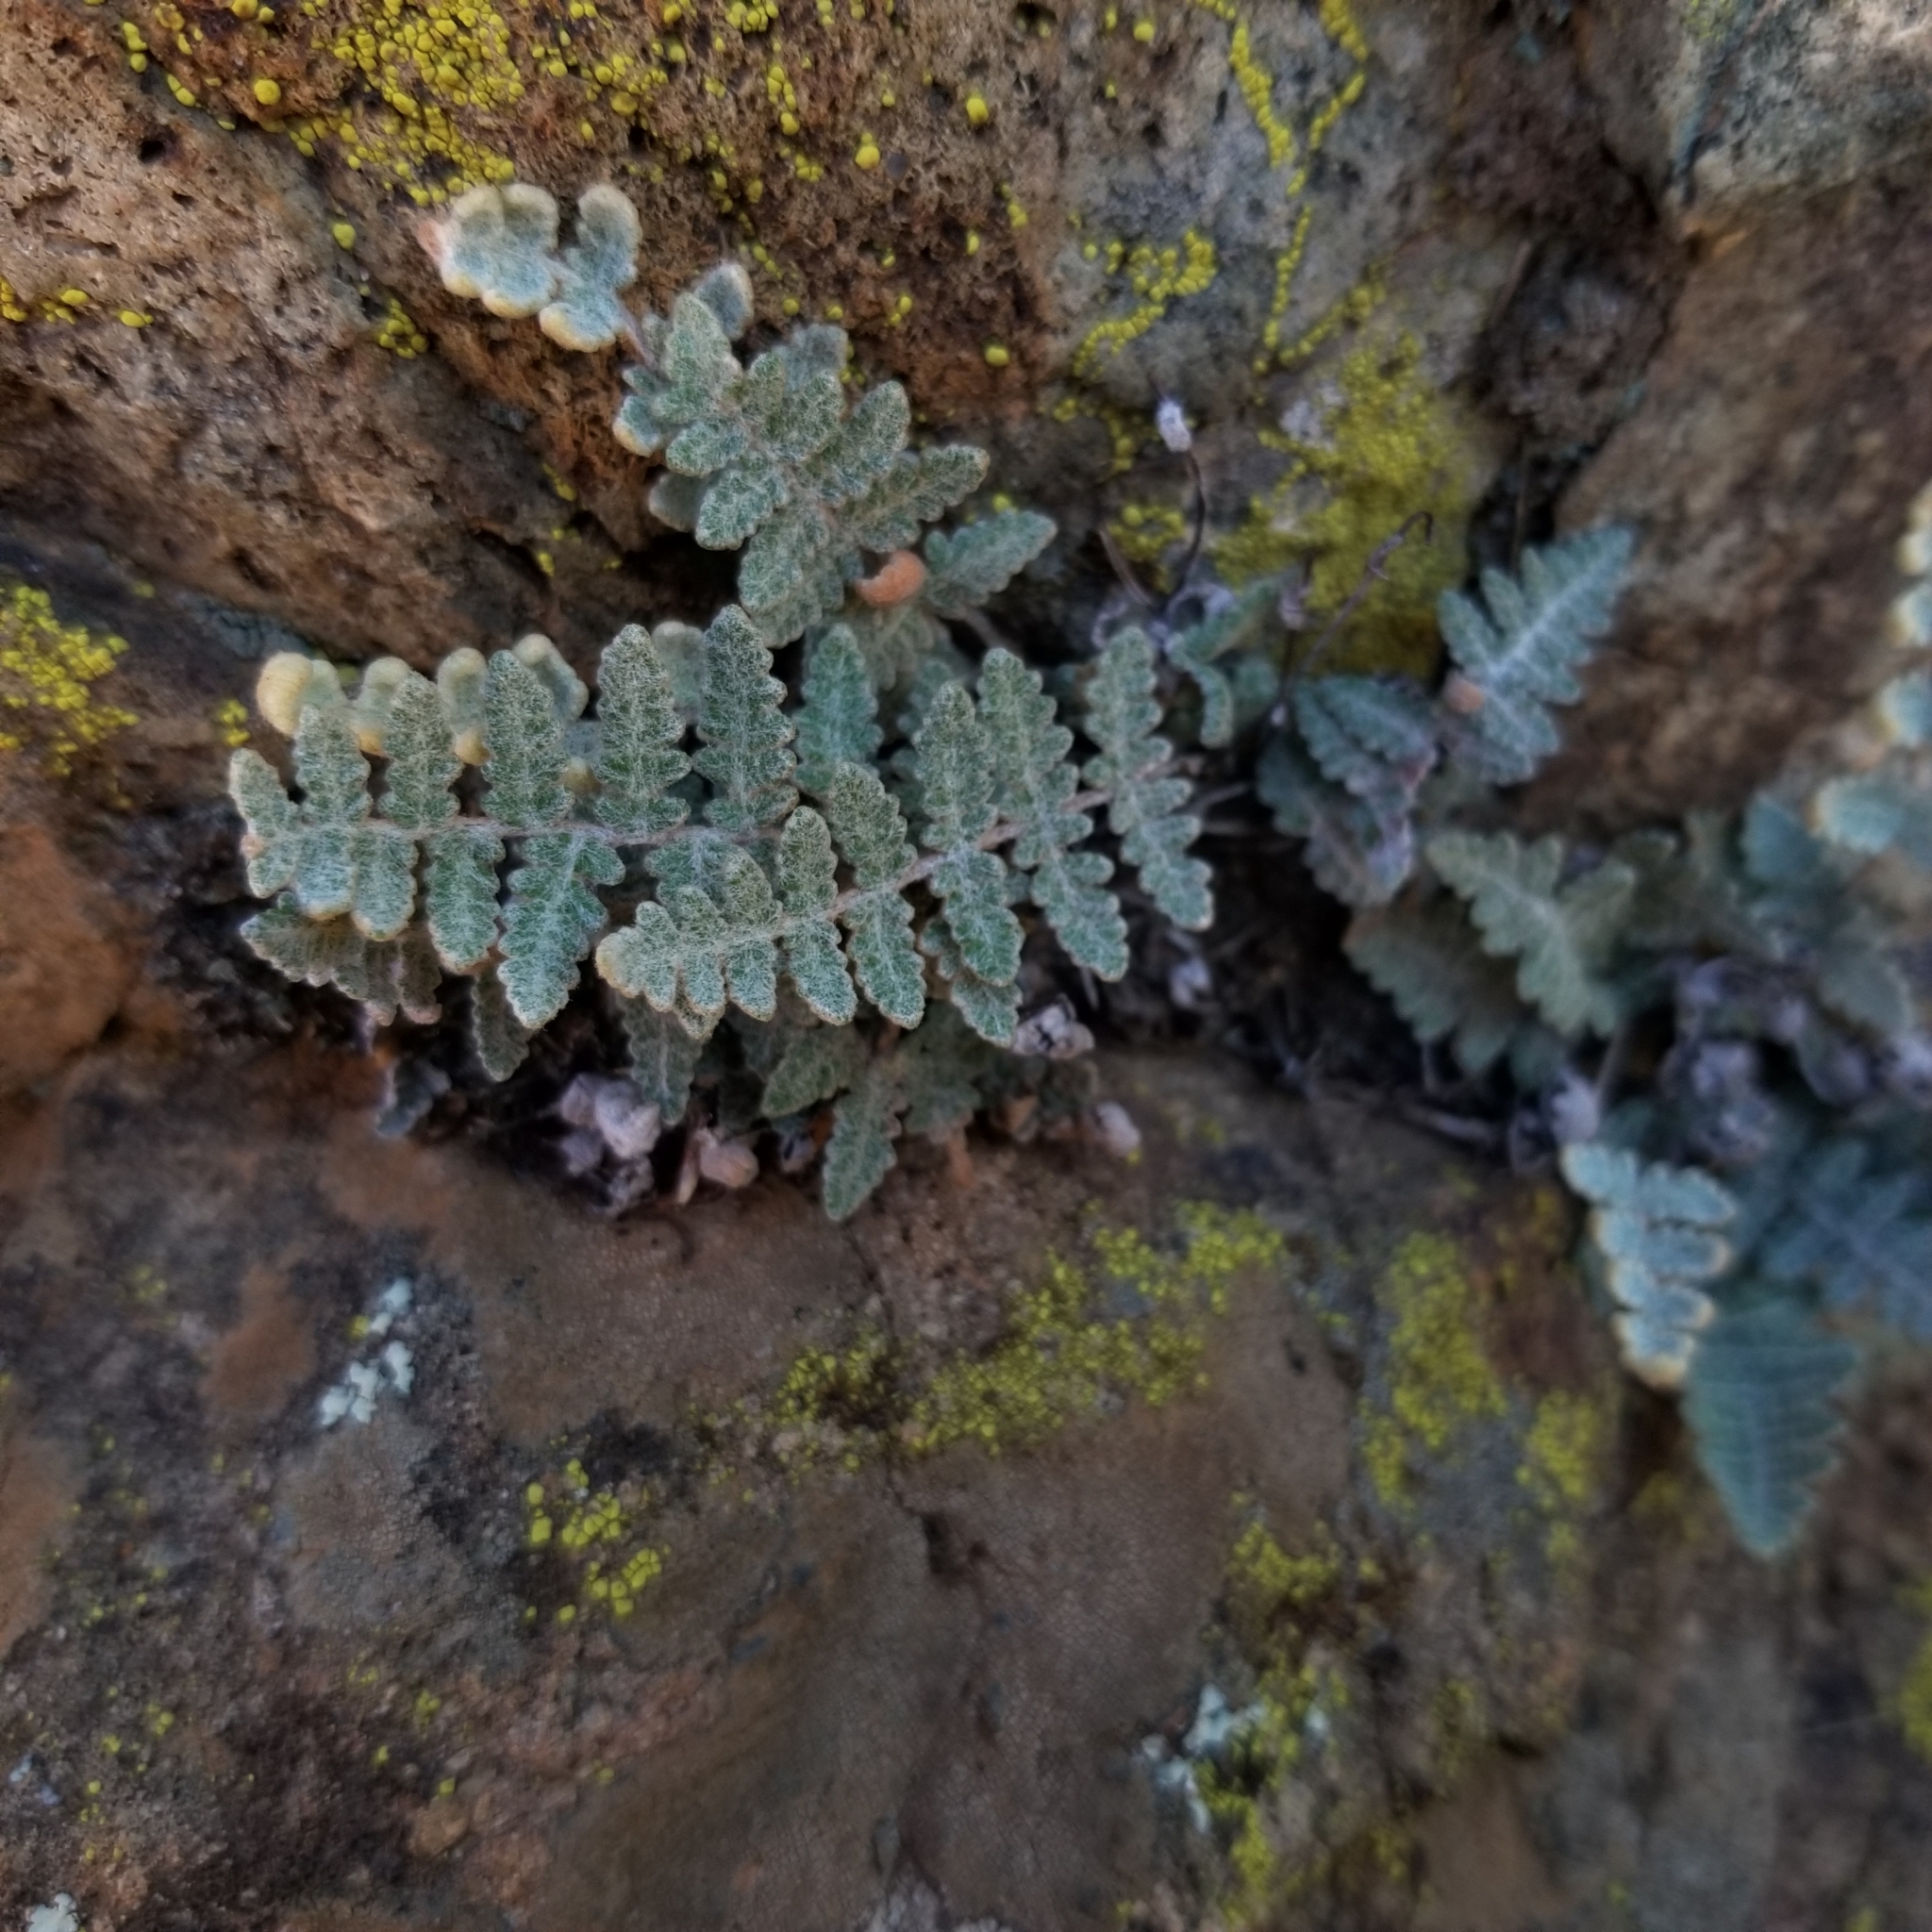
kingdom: Plantae
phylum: Tracheophyta
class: Polypodiopsida
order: Polypodiales
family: Pteridaceae
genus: Myriopteris
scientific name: Myriopteris newberryi
